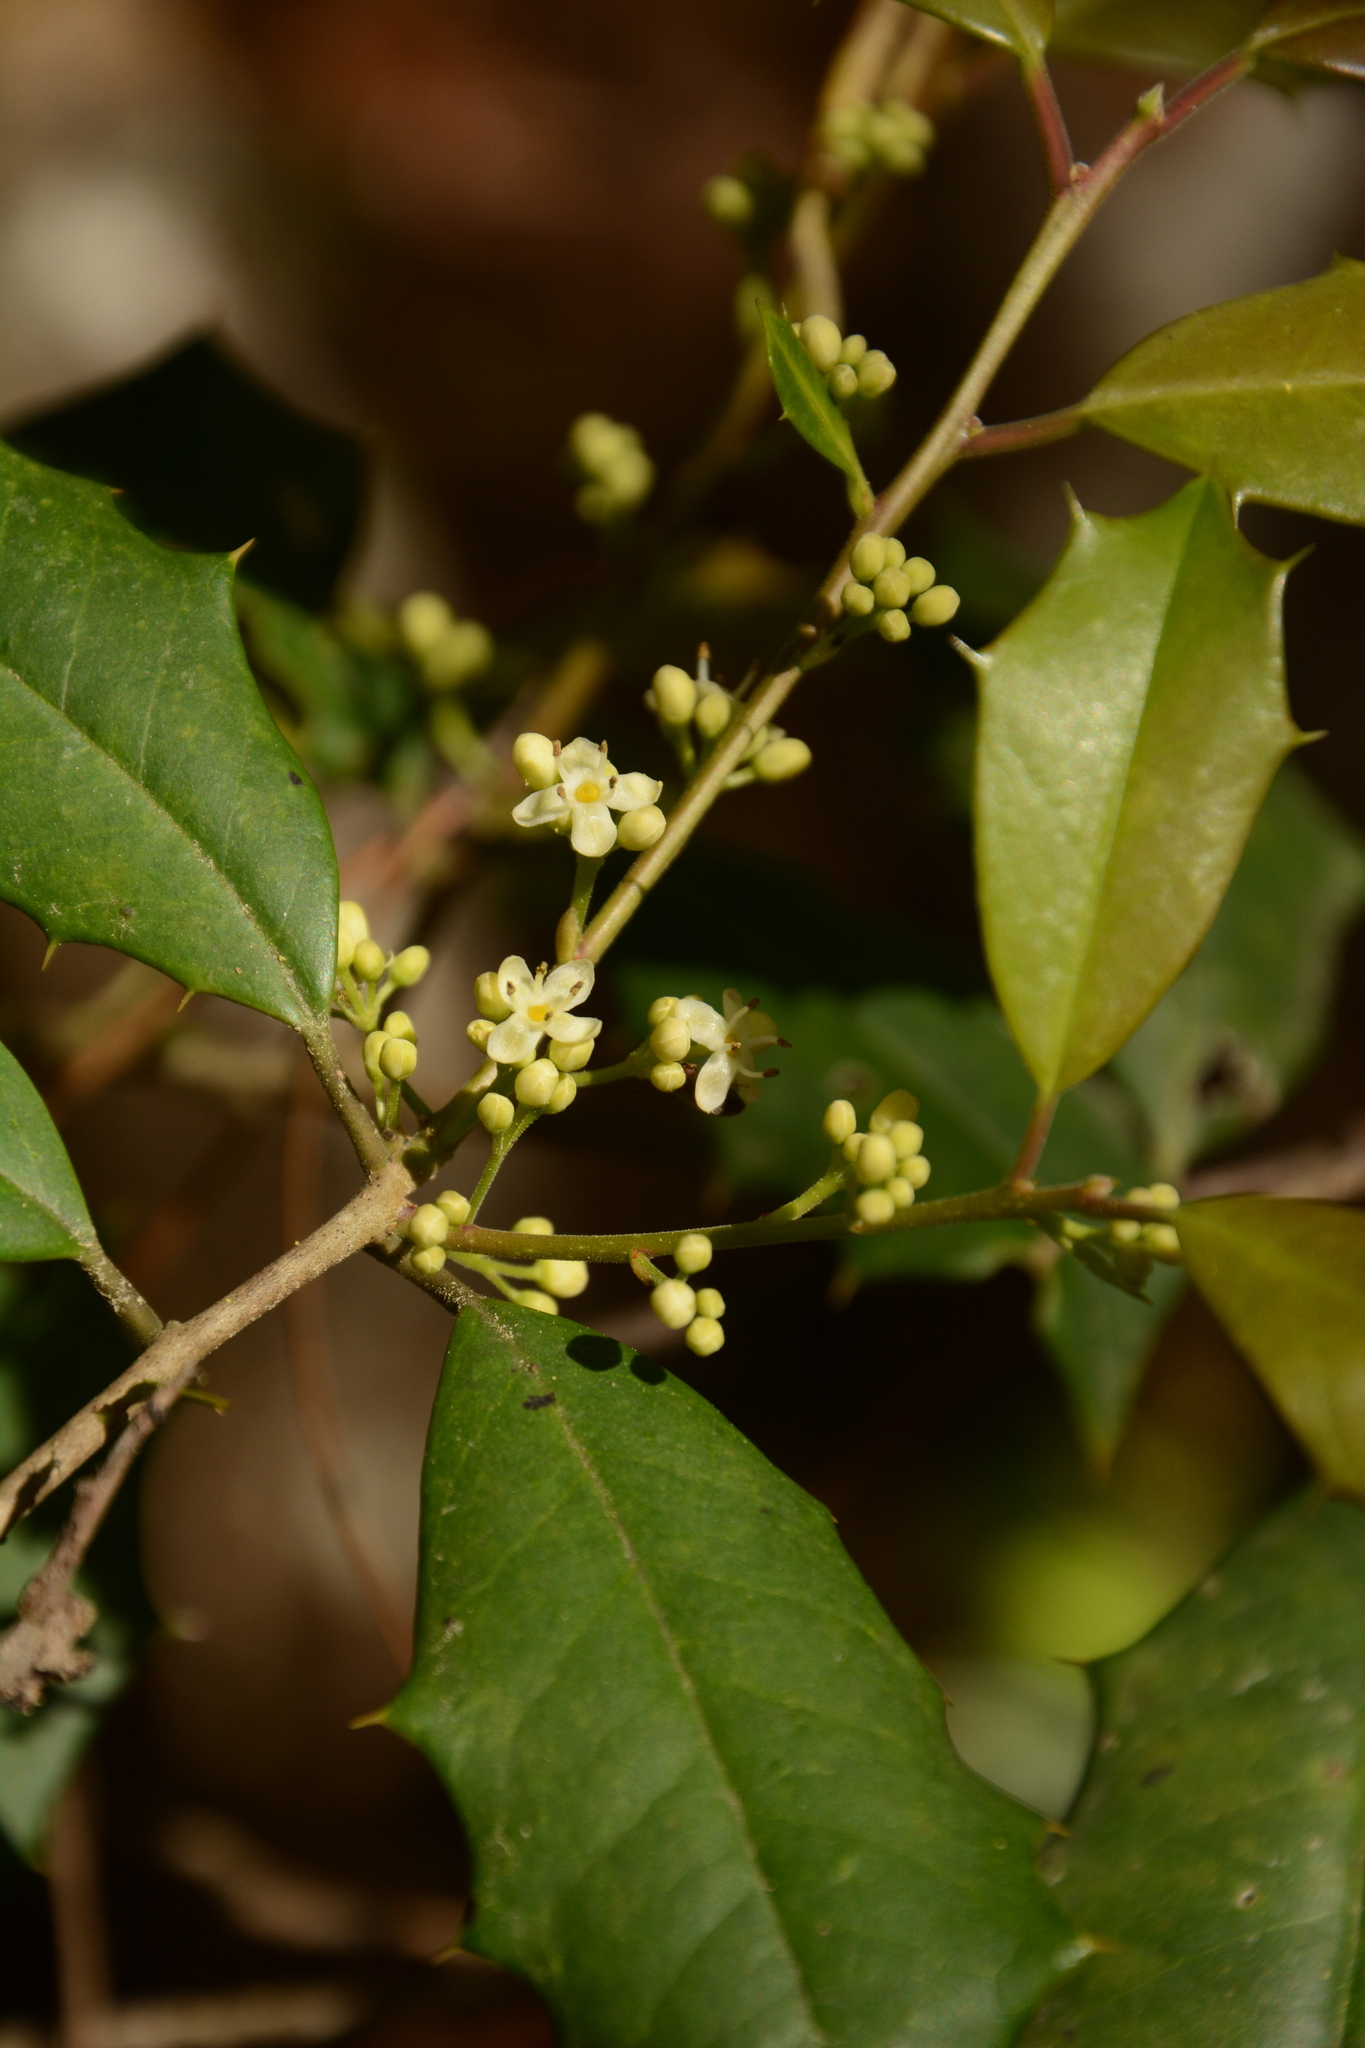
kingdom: Plantae
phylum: Tracheophyta
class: Magnoliopsida
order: Aquifoliales
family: Aquifoliaceae
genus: Ilex
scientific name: Ilex opaca
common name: American holly
